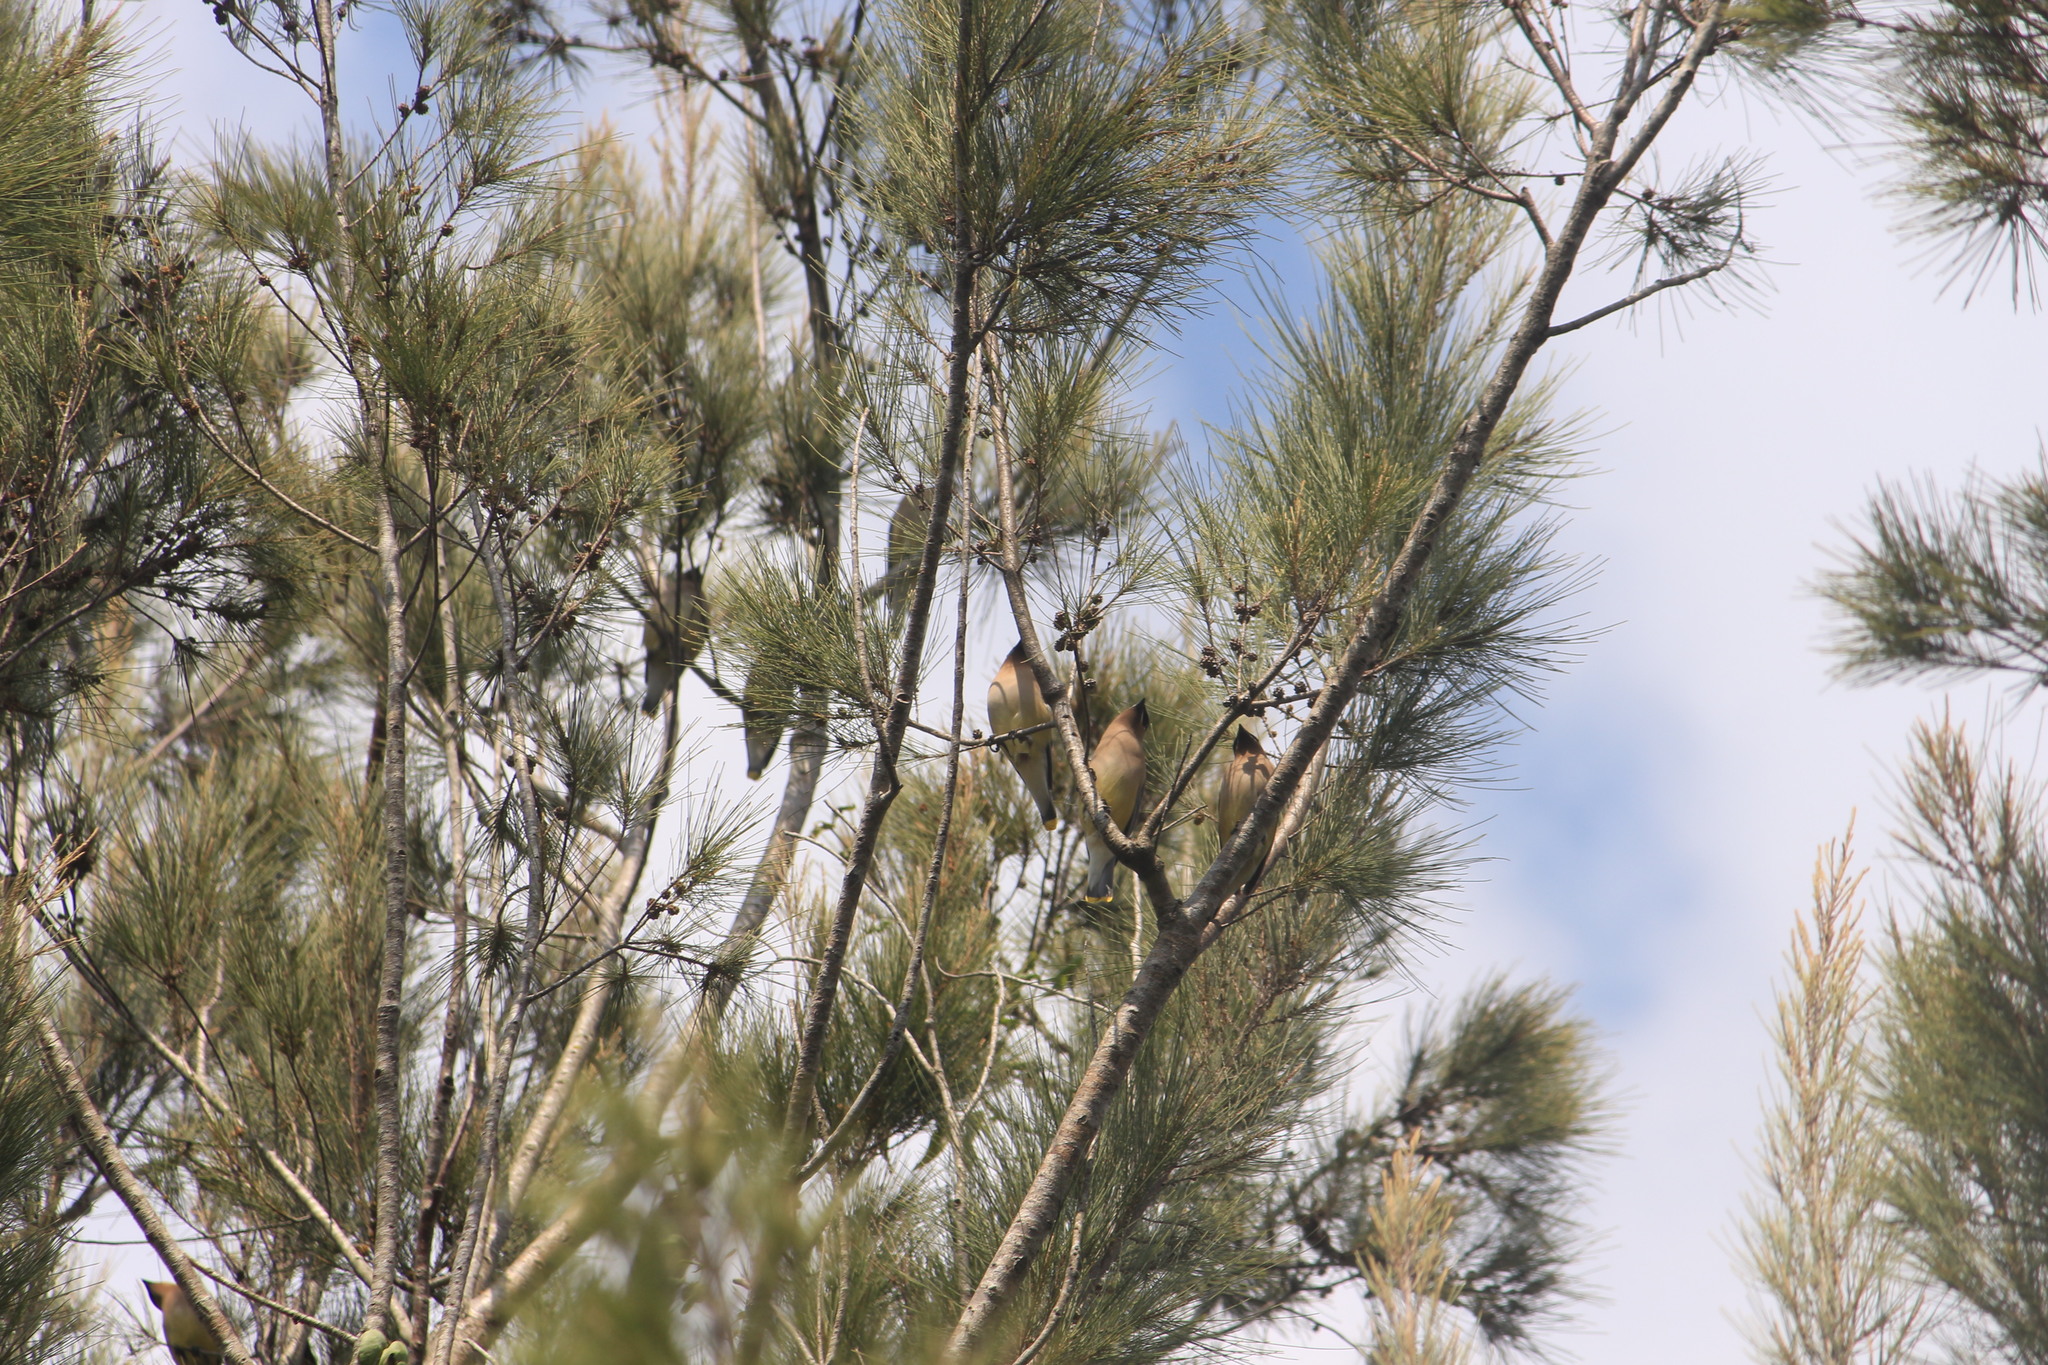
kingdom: Animalia
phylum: Chordata
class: Aves
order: Passeriformes
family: Bombycillidae
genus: Bombycilla
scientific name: Bombycilla cedrorum
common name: Cedar waxwing
